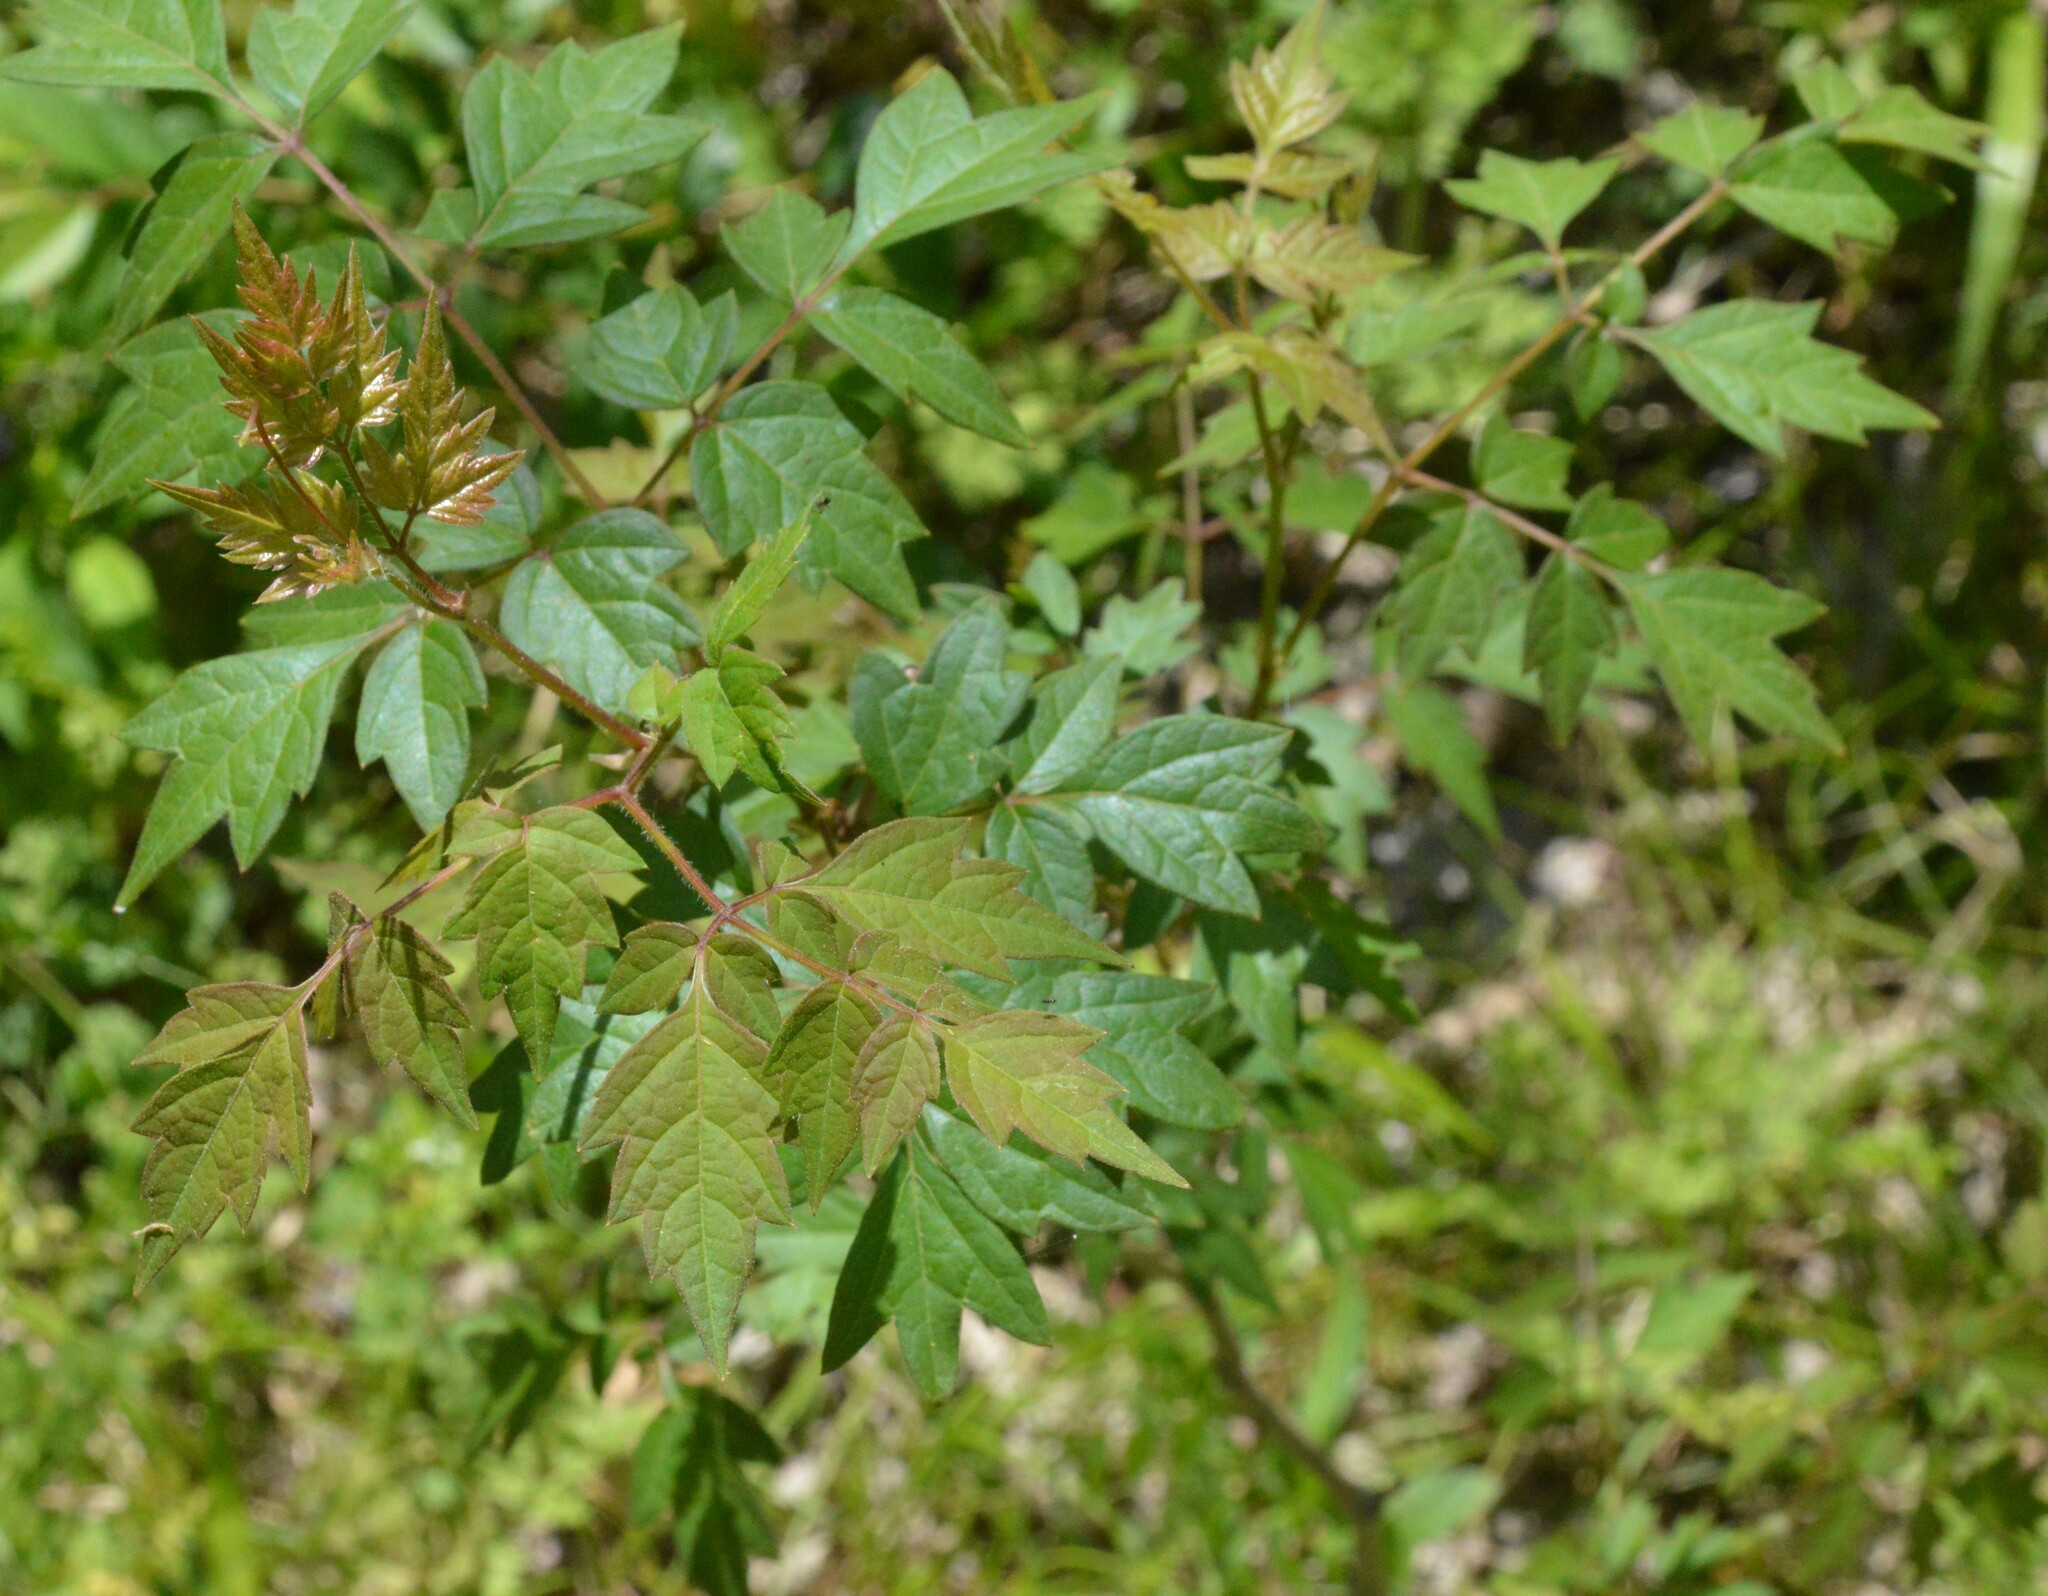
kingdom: Plantae
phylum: Tracheophyta
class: Magnoliopsida
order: Vitales
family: Vitaceae
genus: Nekemias
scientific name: Nekemias arborea
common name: Peppervine
